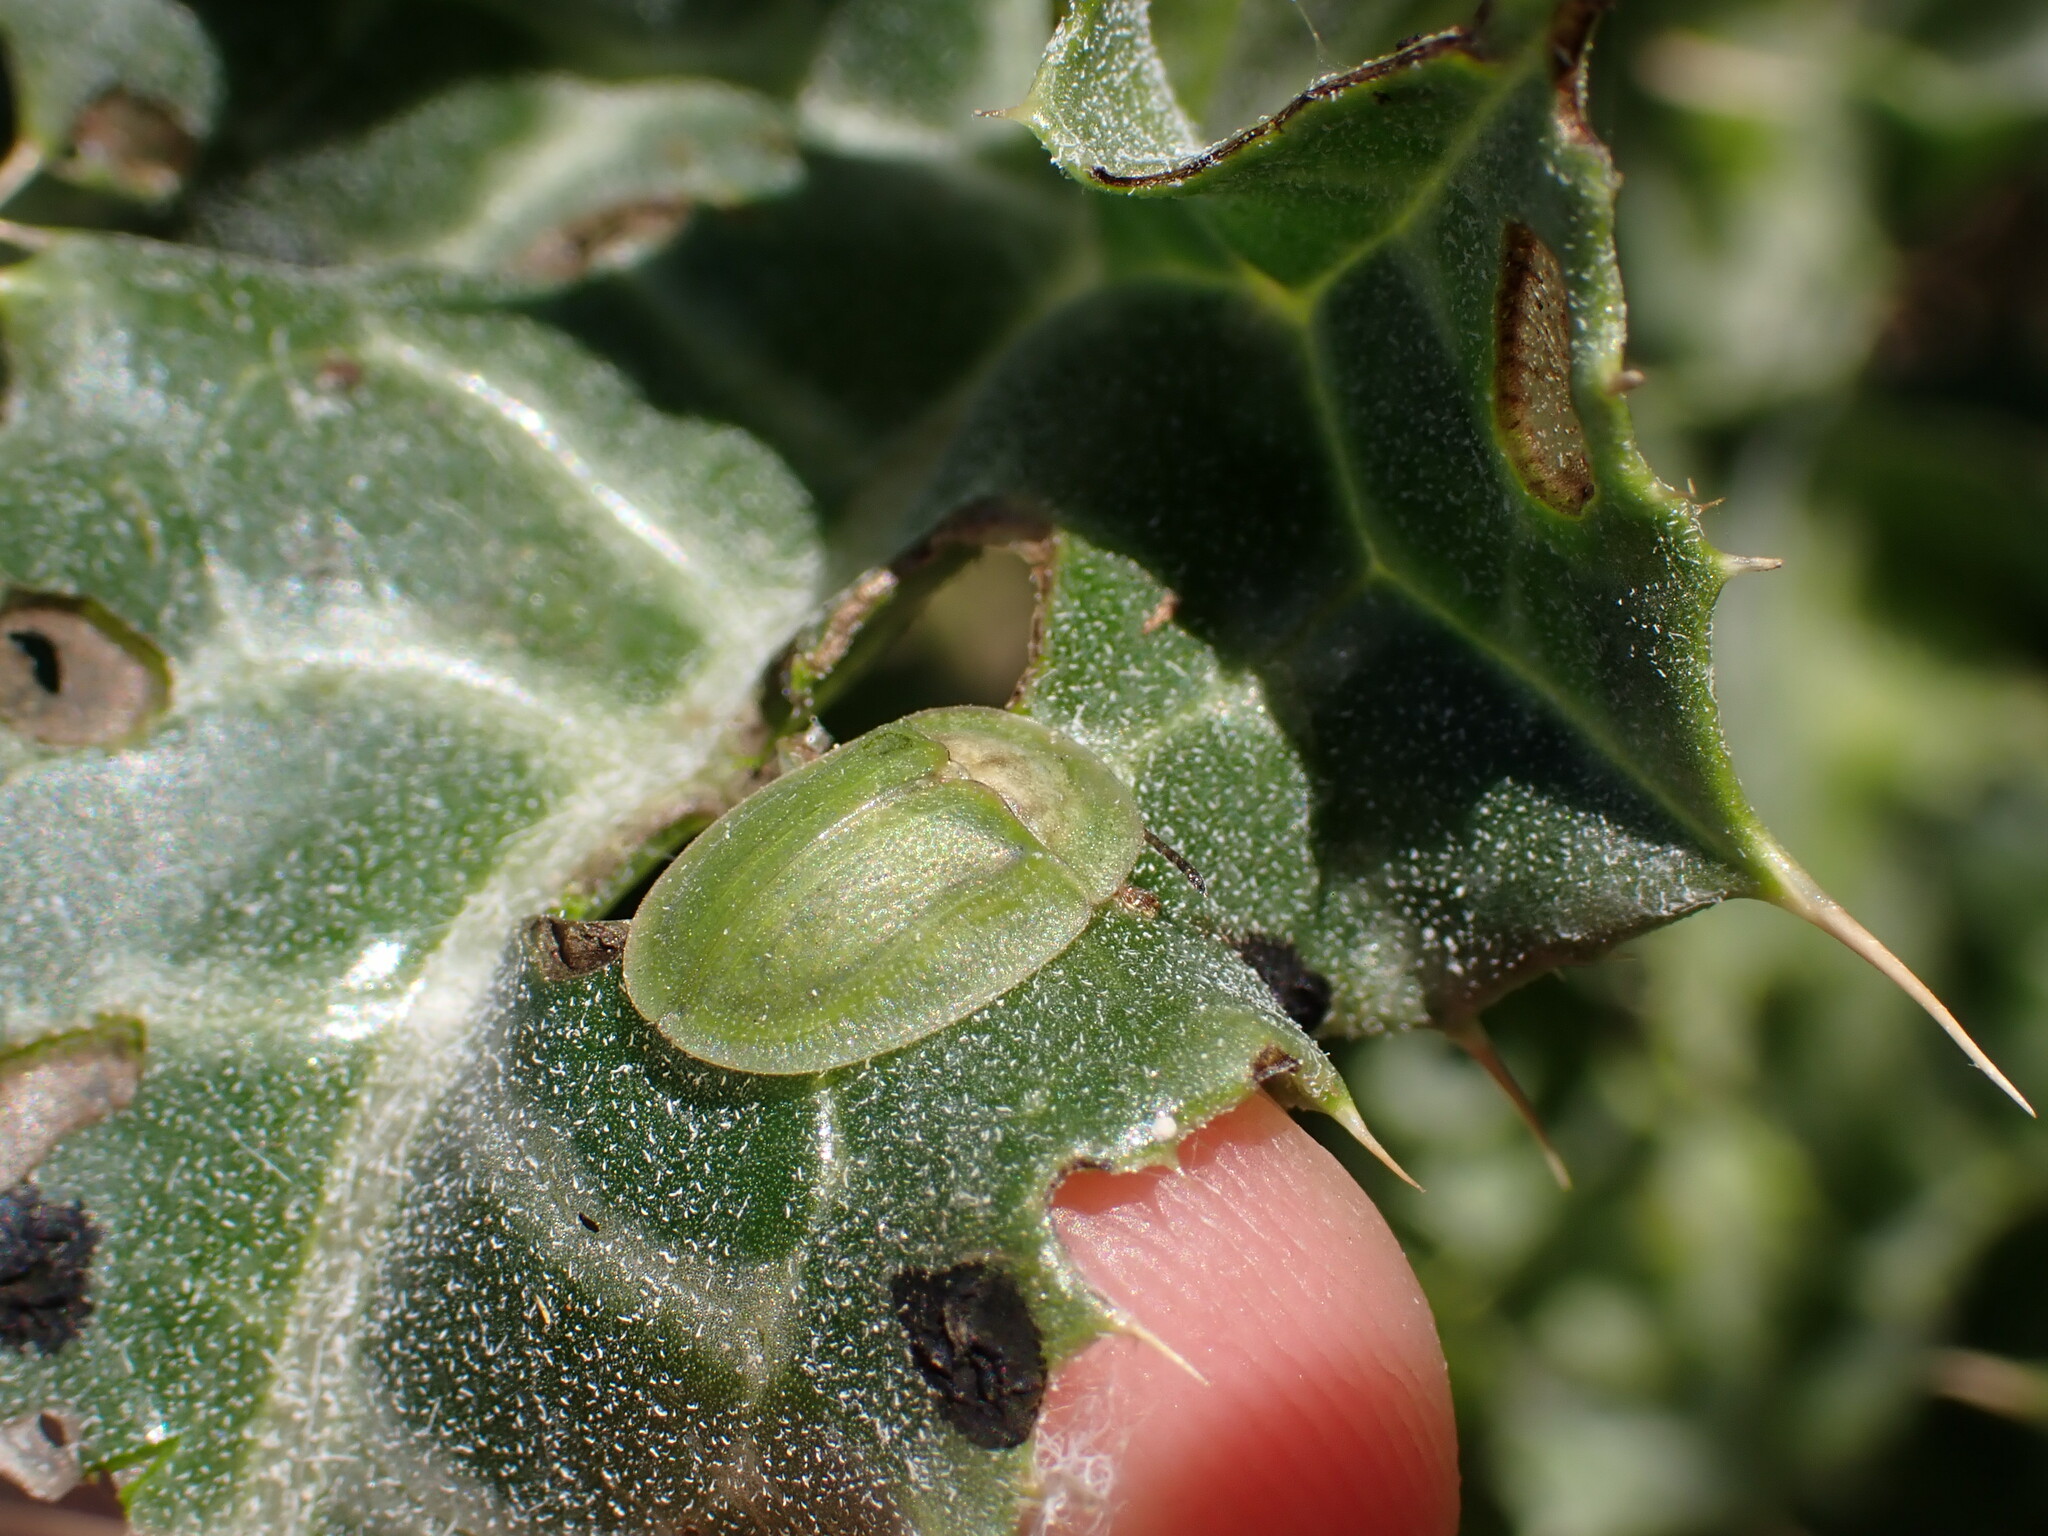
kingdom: Animalia
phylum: Arthropoda
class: Insecta
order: Coleoptera
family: Chrysomelidae
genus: Cassida
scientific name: Cassida deflorata
